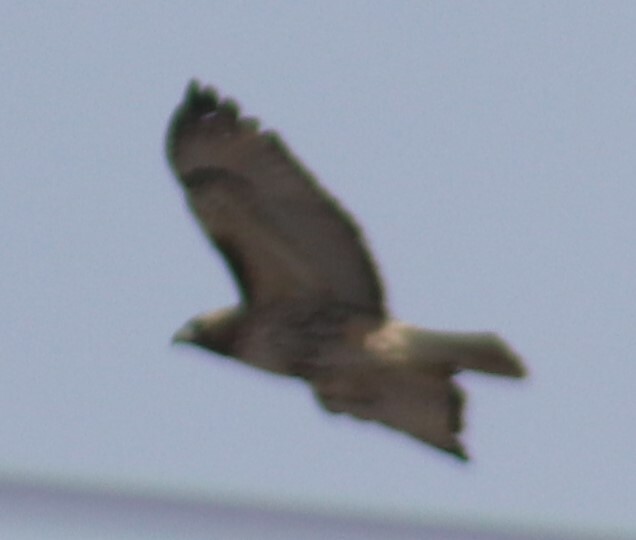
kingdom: Animalia
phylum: Chordata
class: Aves
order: Accipitriformes
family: Accipitridae
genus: Buteo
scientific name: Buteo jamaicensis
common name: Red-tailed hawk
